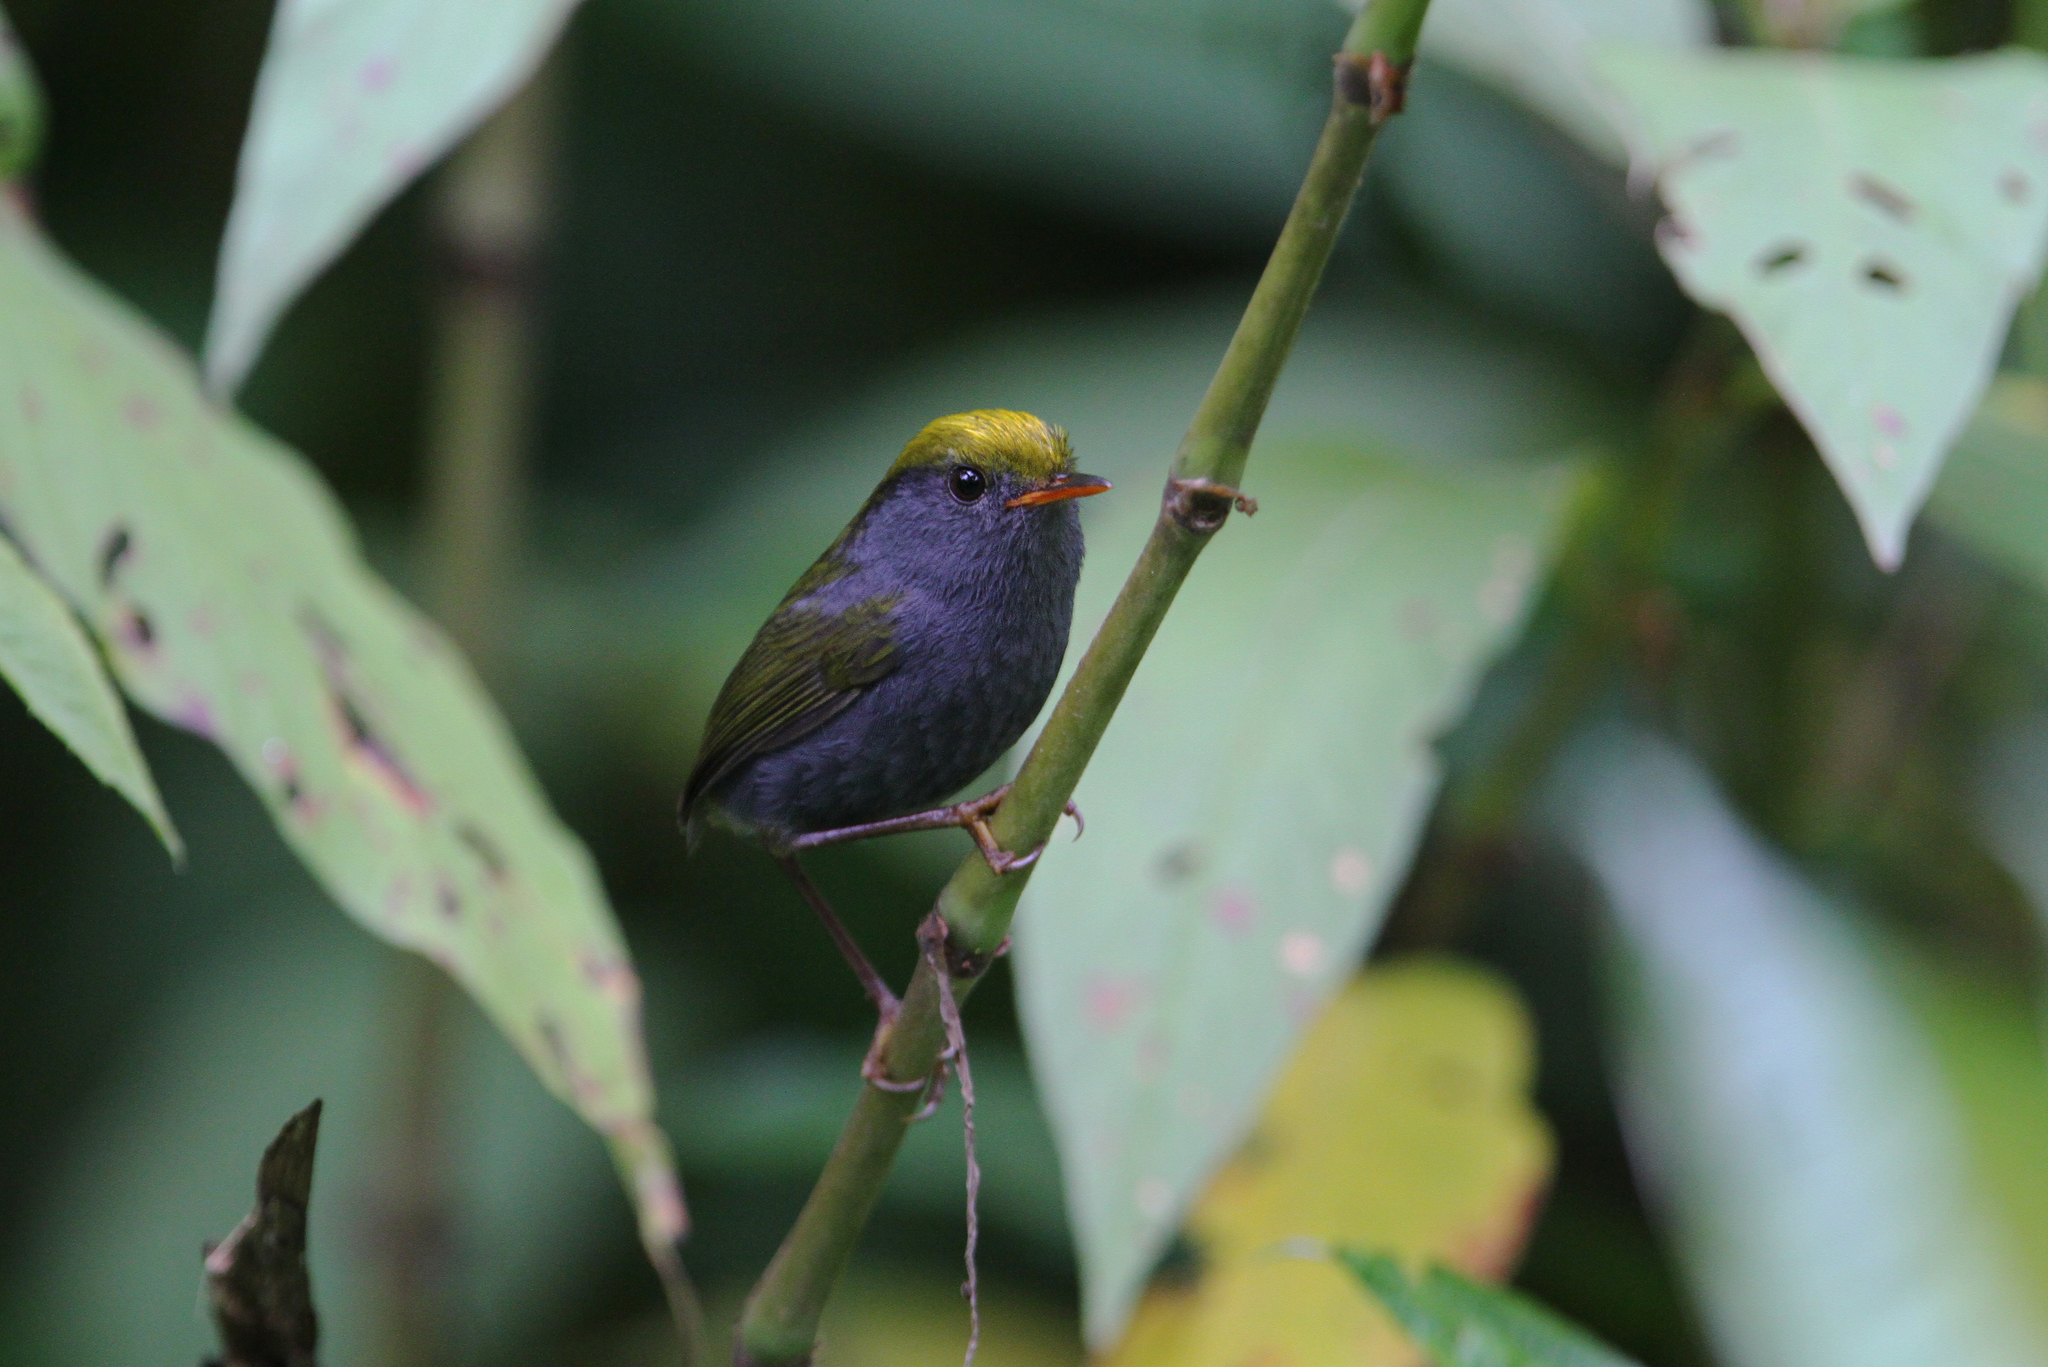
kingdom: Animalia
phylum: Chordata
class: Aves
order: Passeriformes
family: Cettiidae
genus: Tesia
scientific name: Tesia olivea
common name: Slaty-bellied tesia
